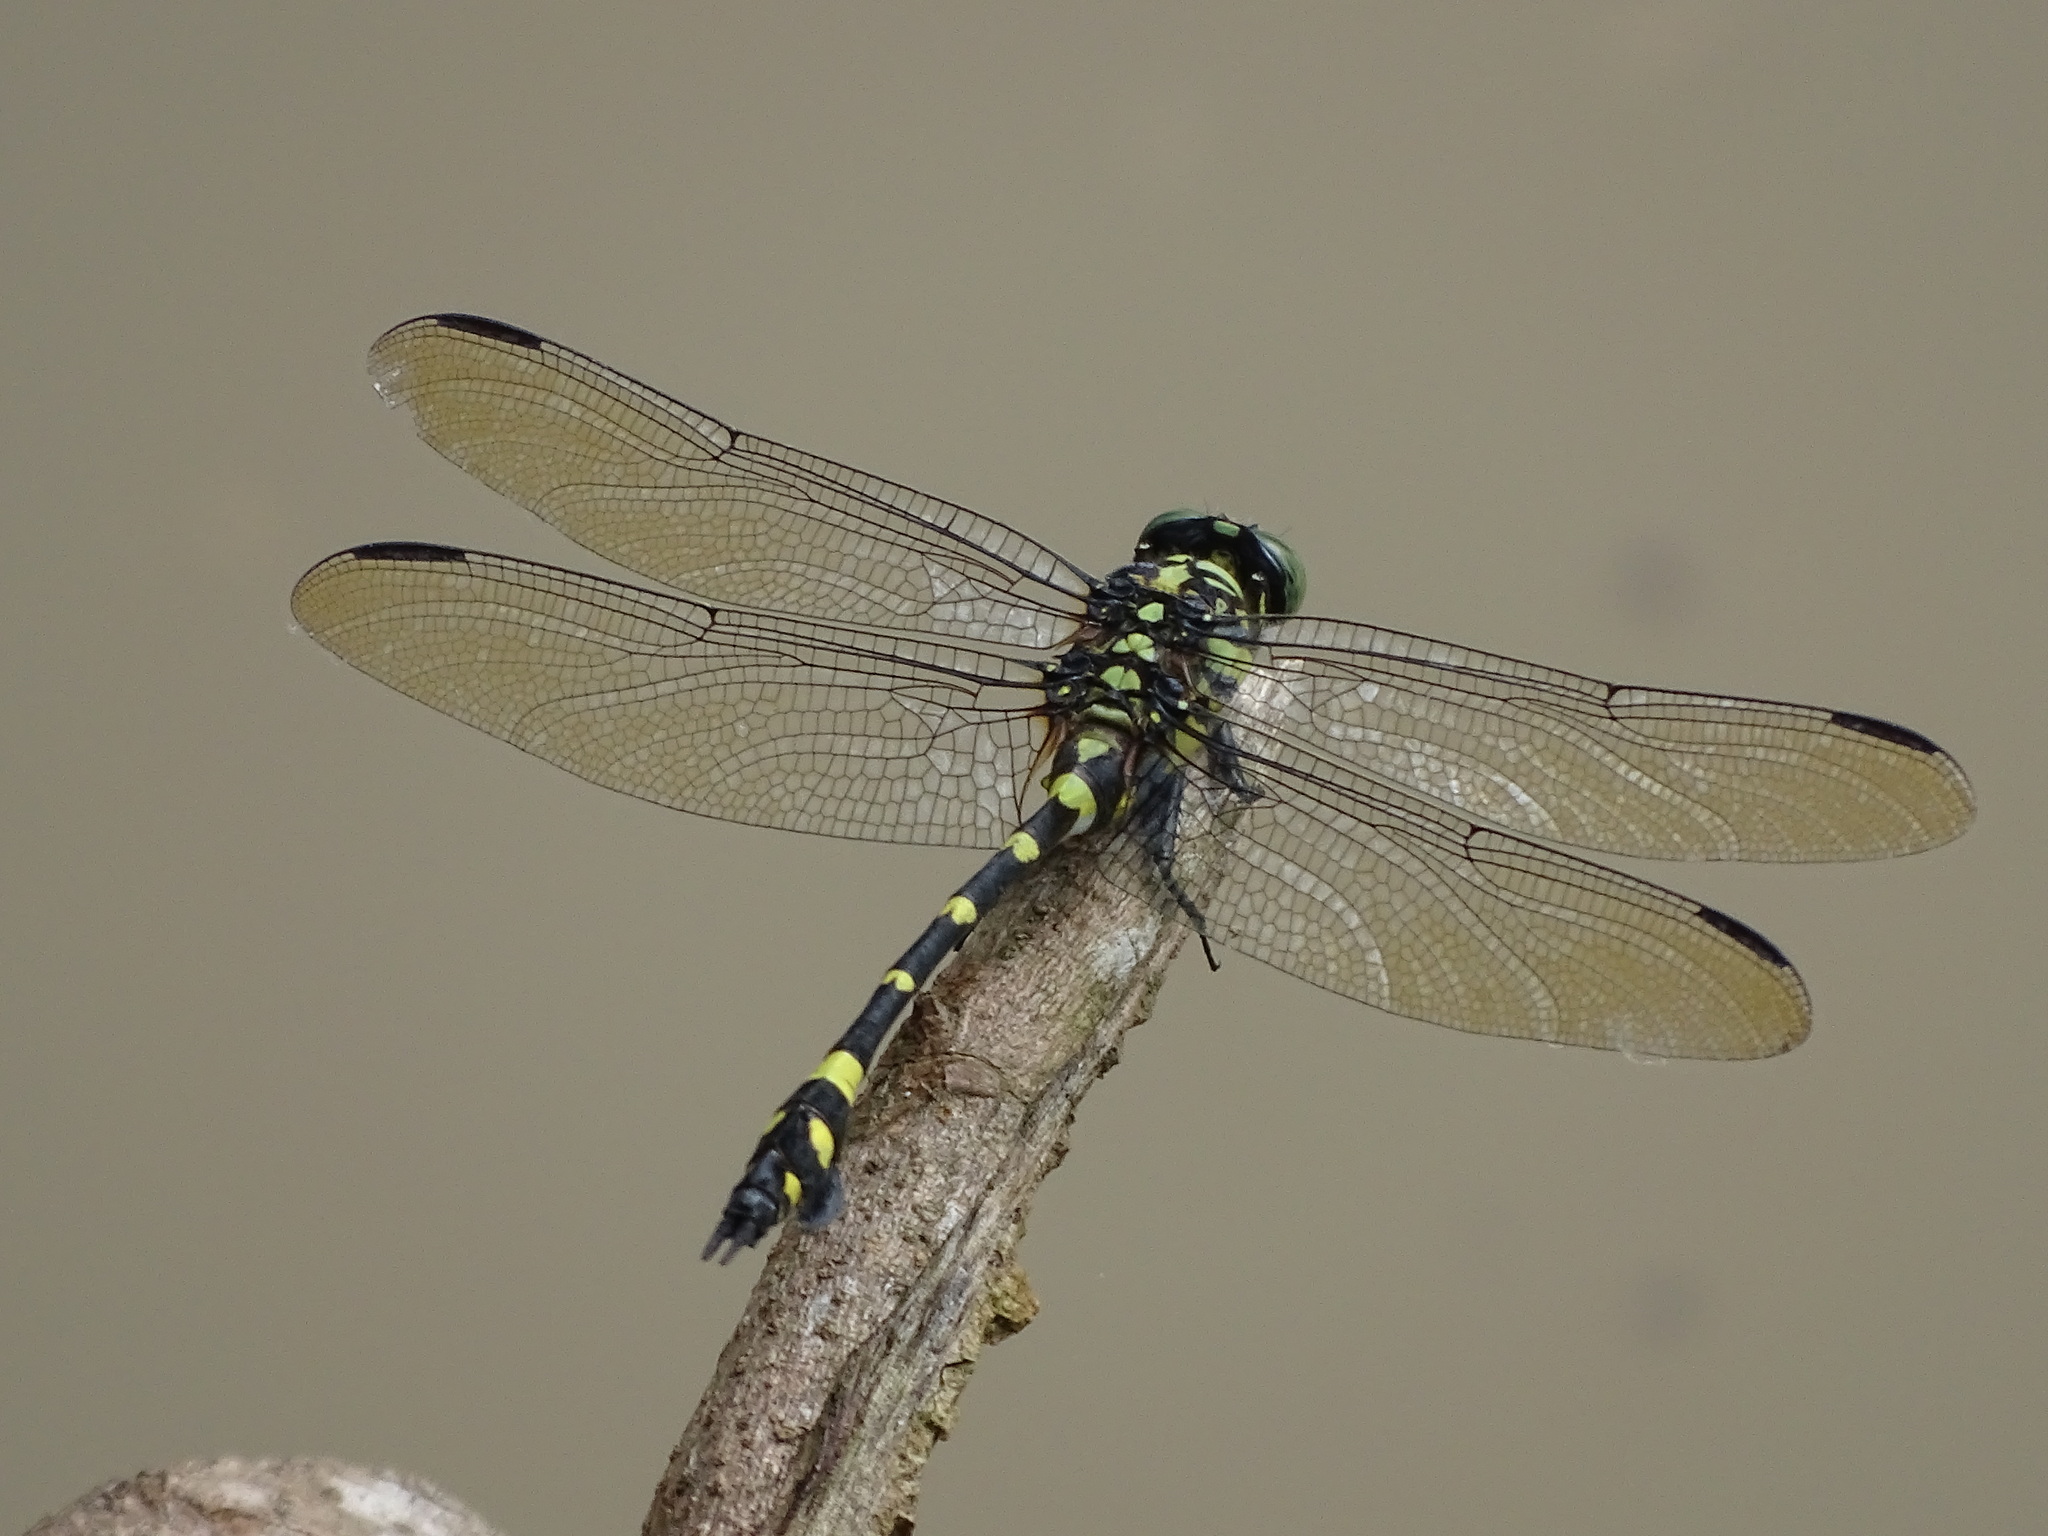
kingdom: Animalia
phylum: Arthropoda
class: Insecta
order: Odonata
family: Gomphidae
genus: Ictinogomphus
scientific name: Ictinogomphus rapax
